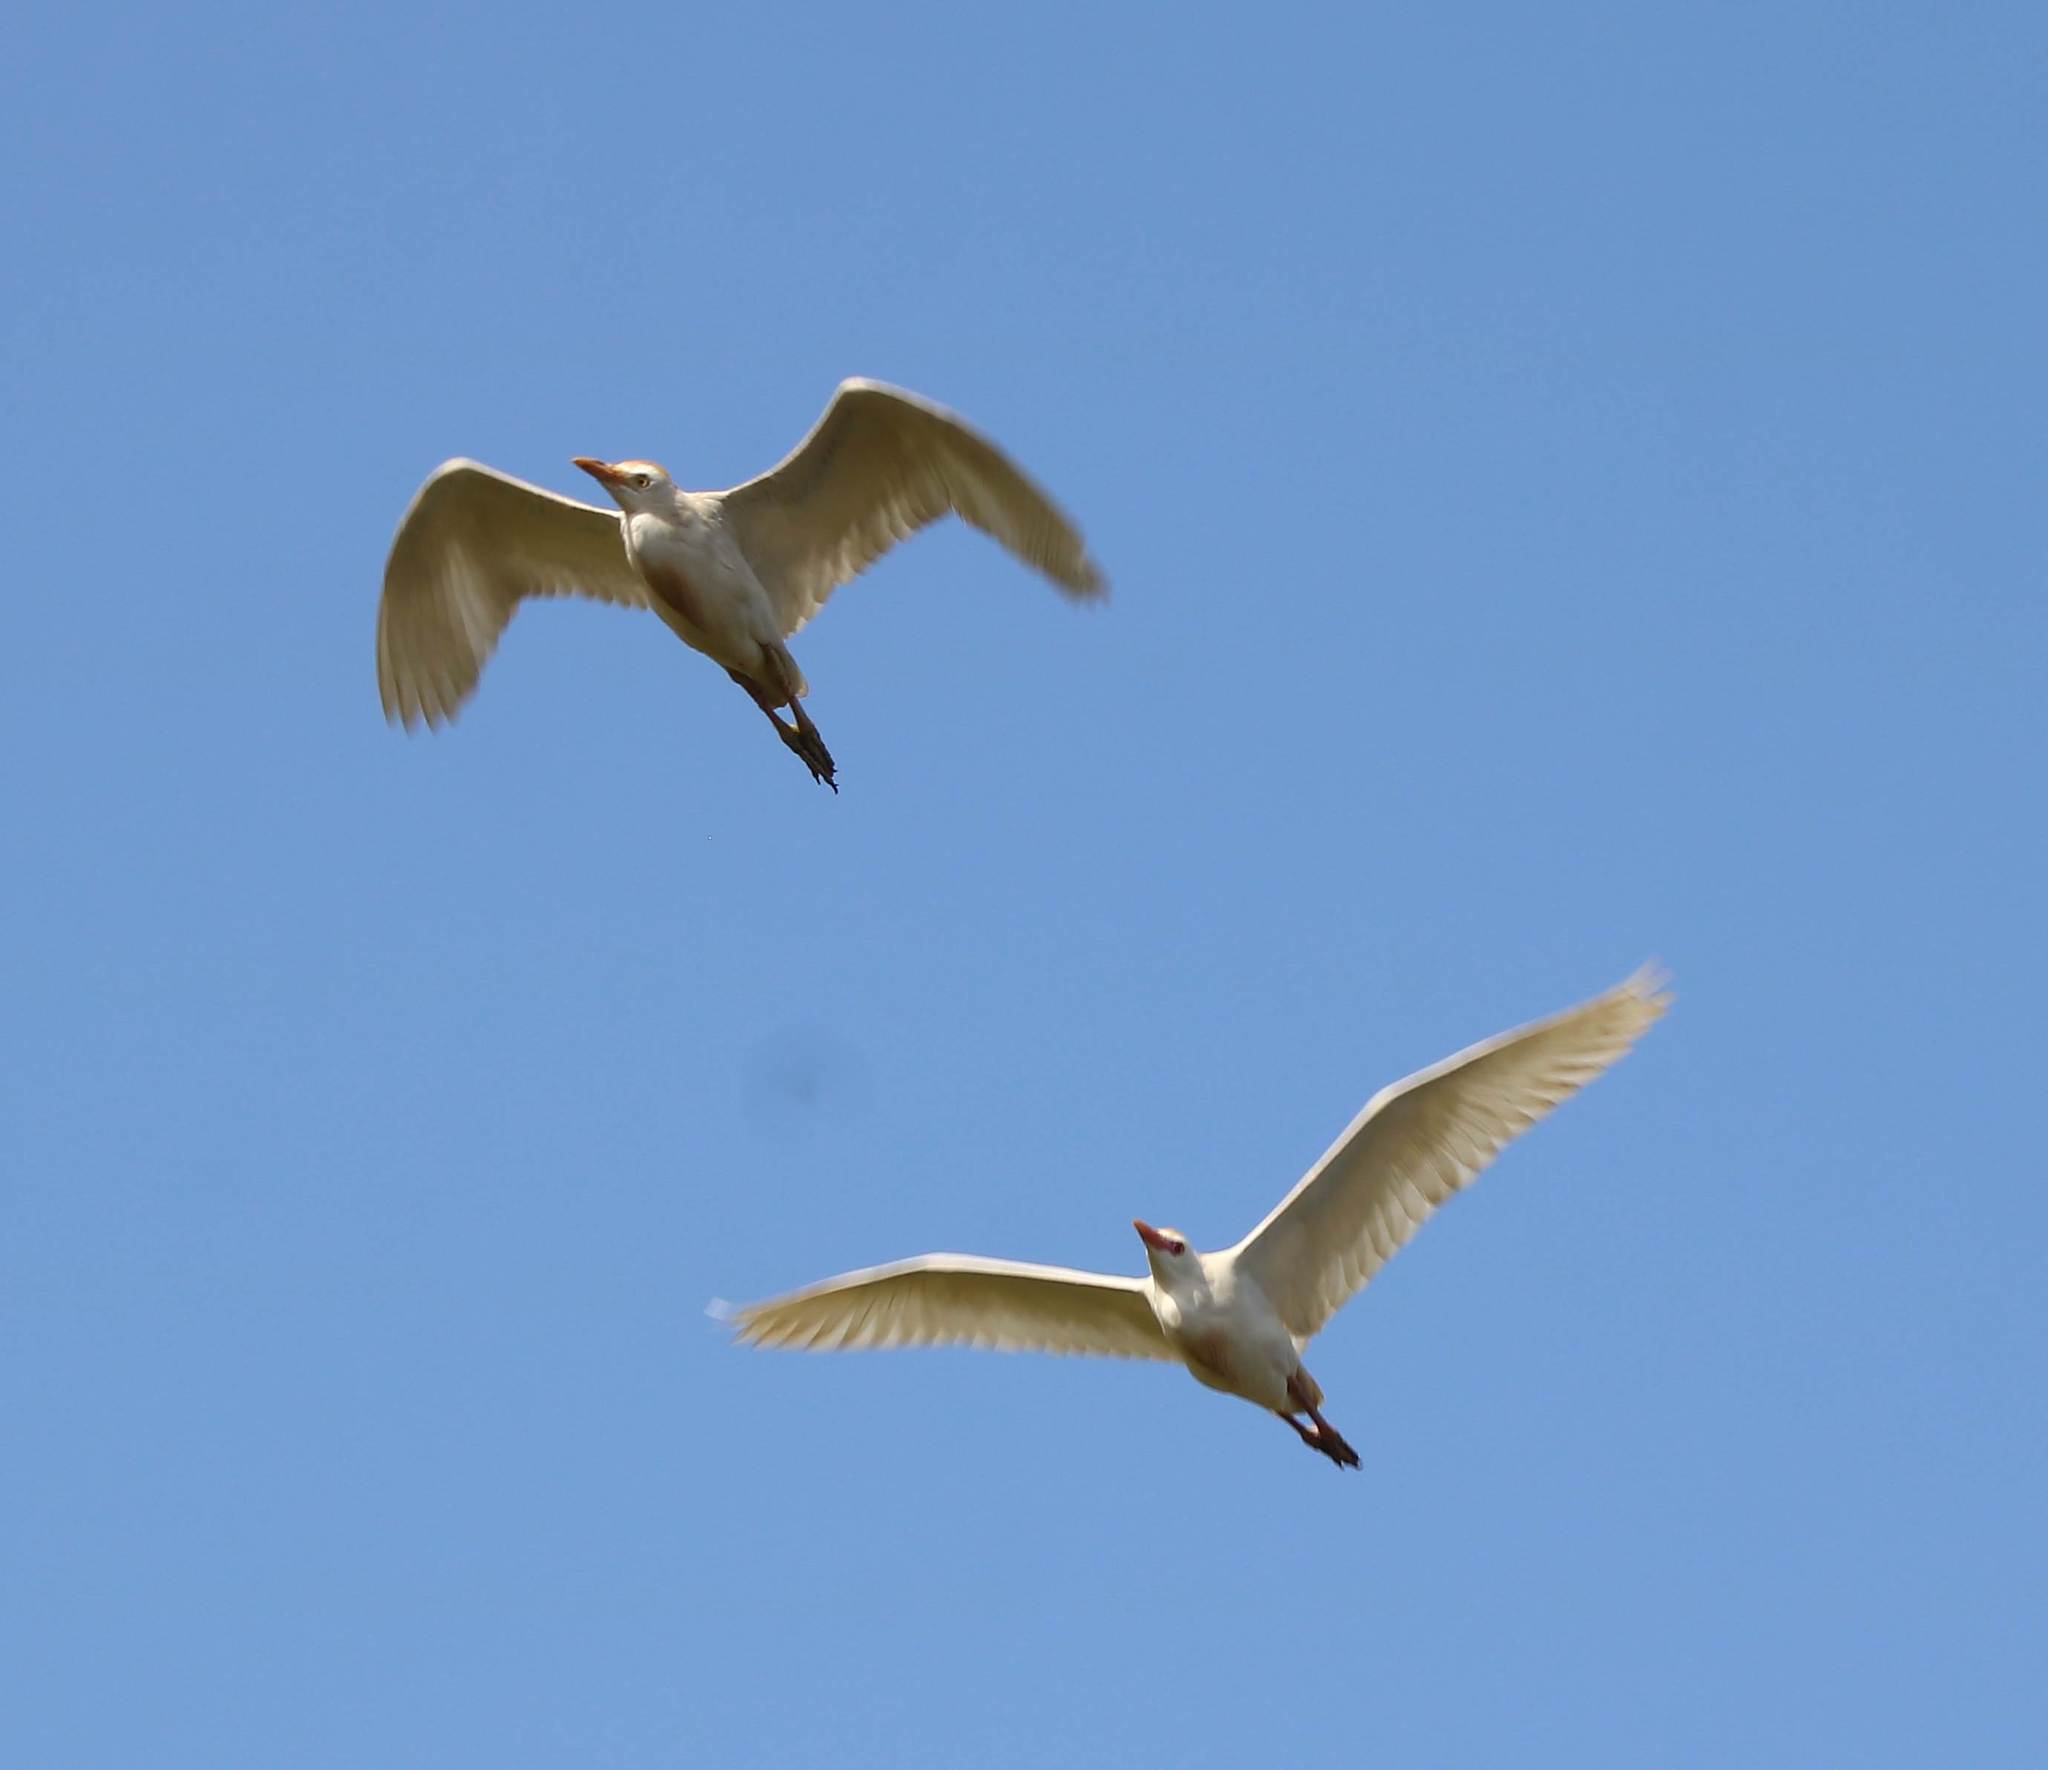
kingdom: Animalia
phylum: Chordata
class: Aves
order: Pelecaniformes
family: Ardeidae
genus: Bubulcus
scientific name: Bubulcus ibis
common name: Cattle egret
